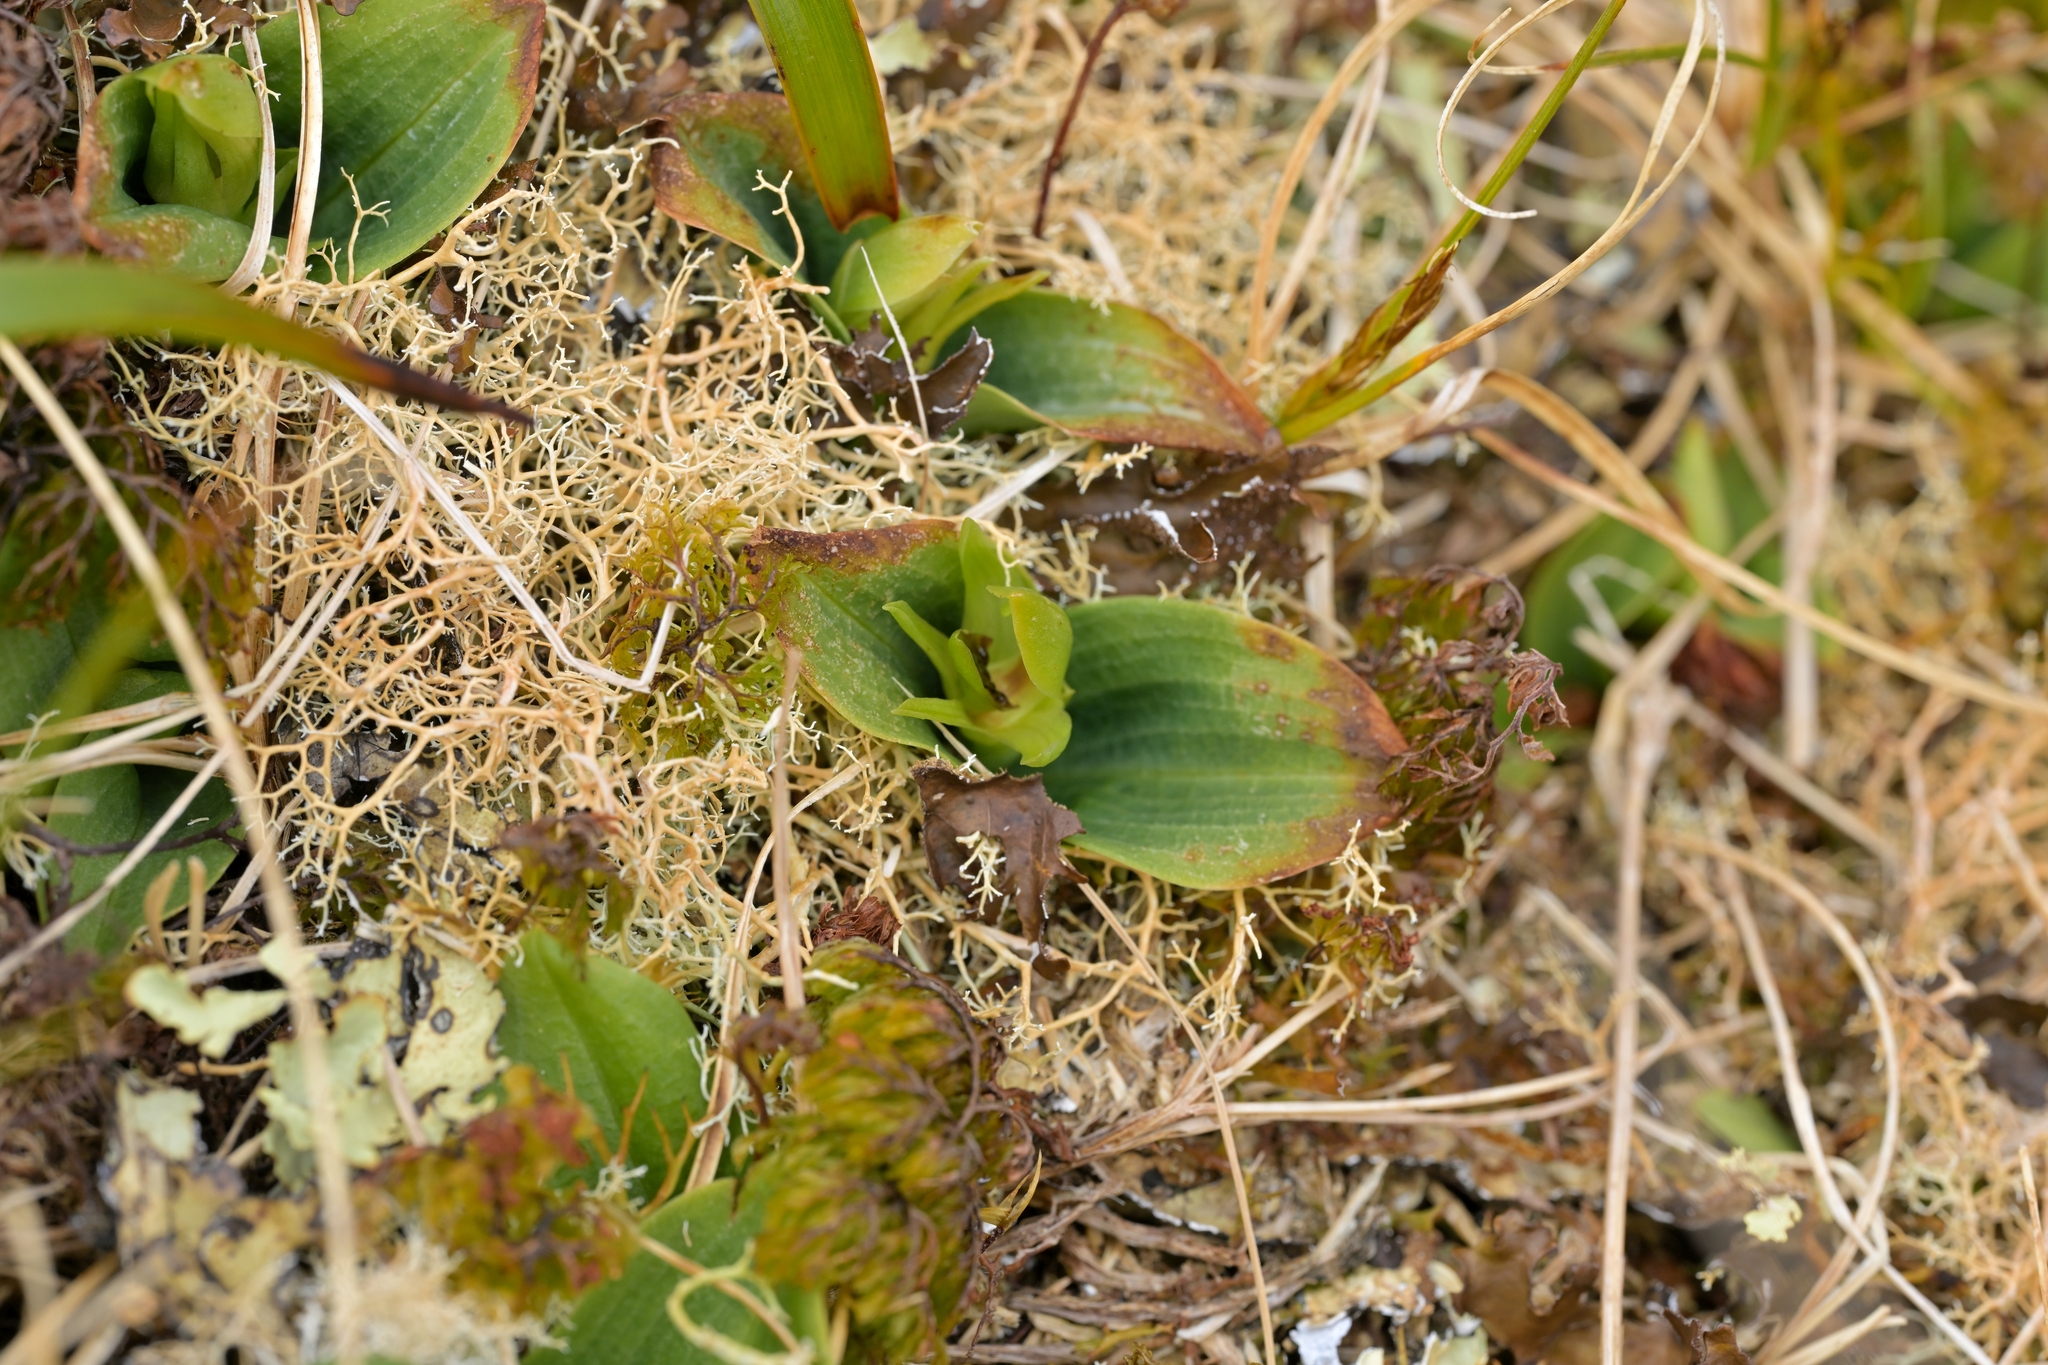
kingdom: Plantae
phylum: Tracheophyta
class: Liliopsida
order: Asparagales
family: Orchidaceae
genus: Chiloglottis
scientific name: Chiloglottis cornuta
